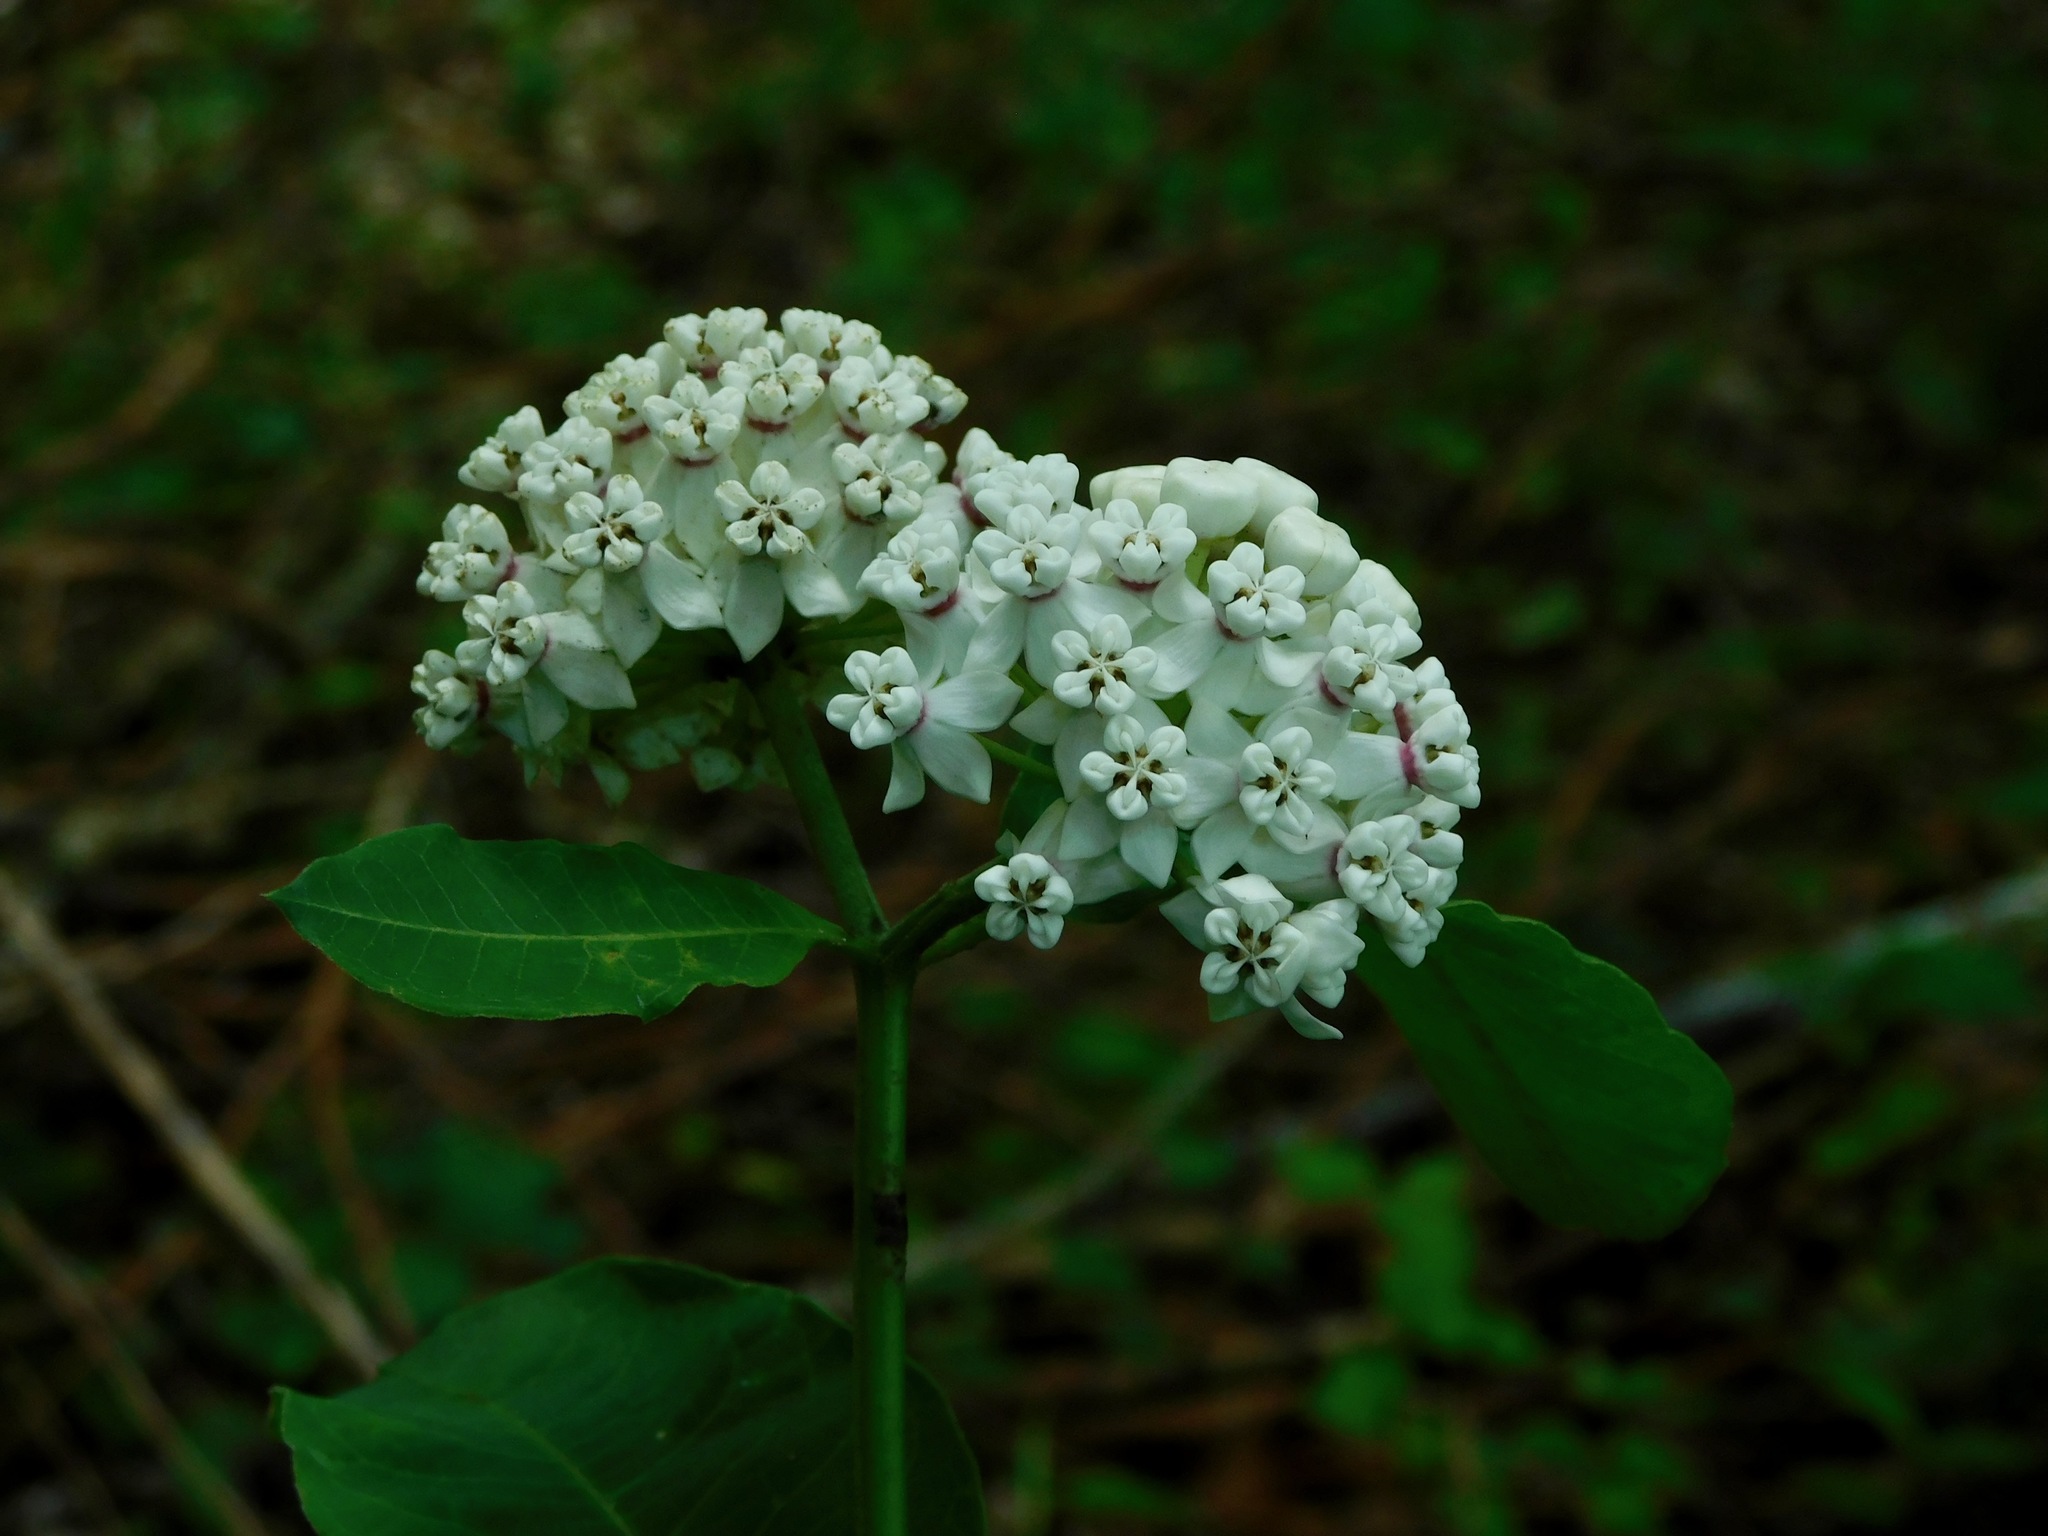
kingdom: Plantae
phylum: Tracheophyta
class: Magnoliopsida
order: Gentianales
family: Apocynaceae
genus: Asclepias
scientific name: Asclepias variegata
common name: Variegated milkweed
